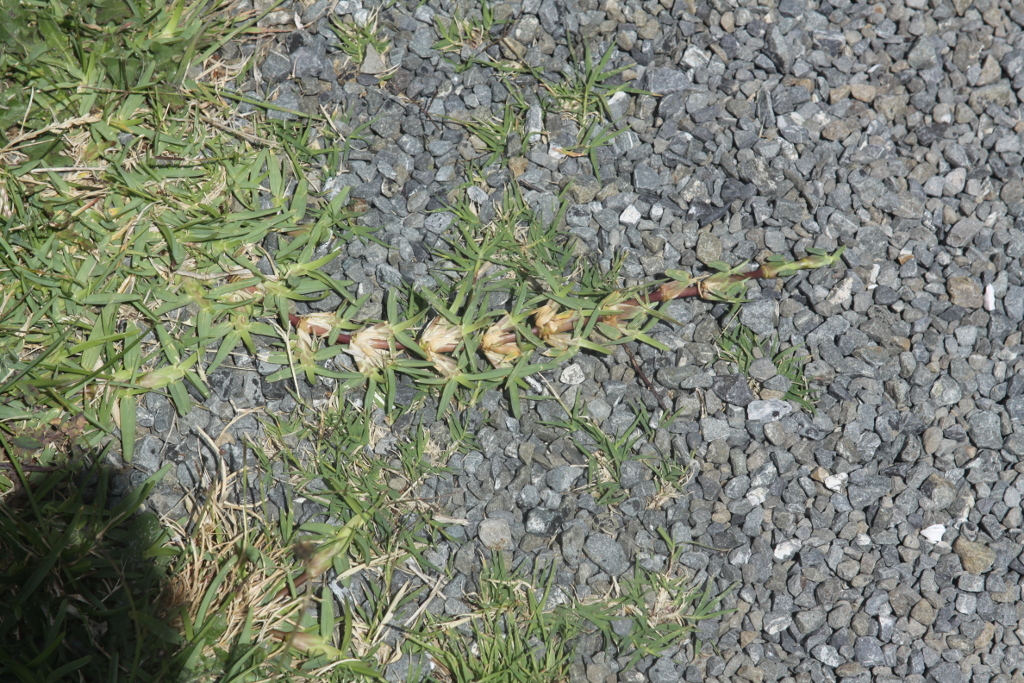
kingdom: Plantae
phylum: Tracheophyta
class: Liliopsida
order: Poales
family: Poaceae
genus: Cenchrus
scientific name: Cenchrus clandestinus
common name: Kikuyugrass
